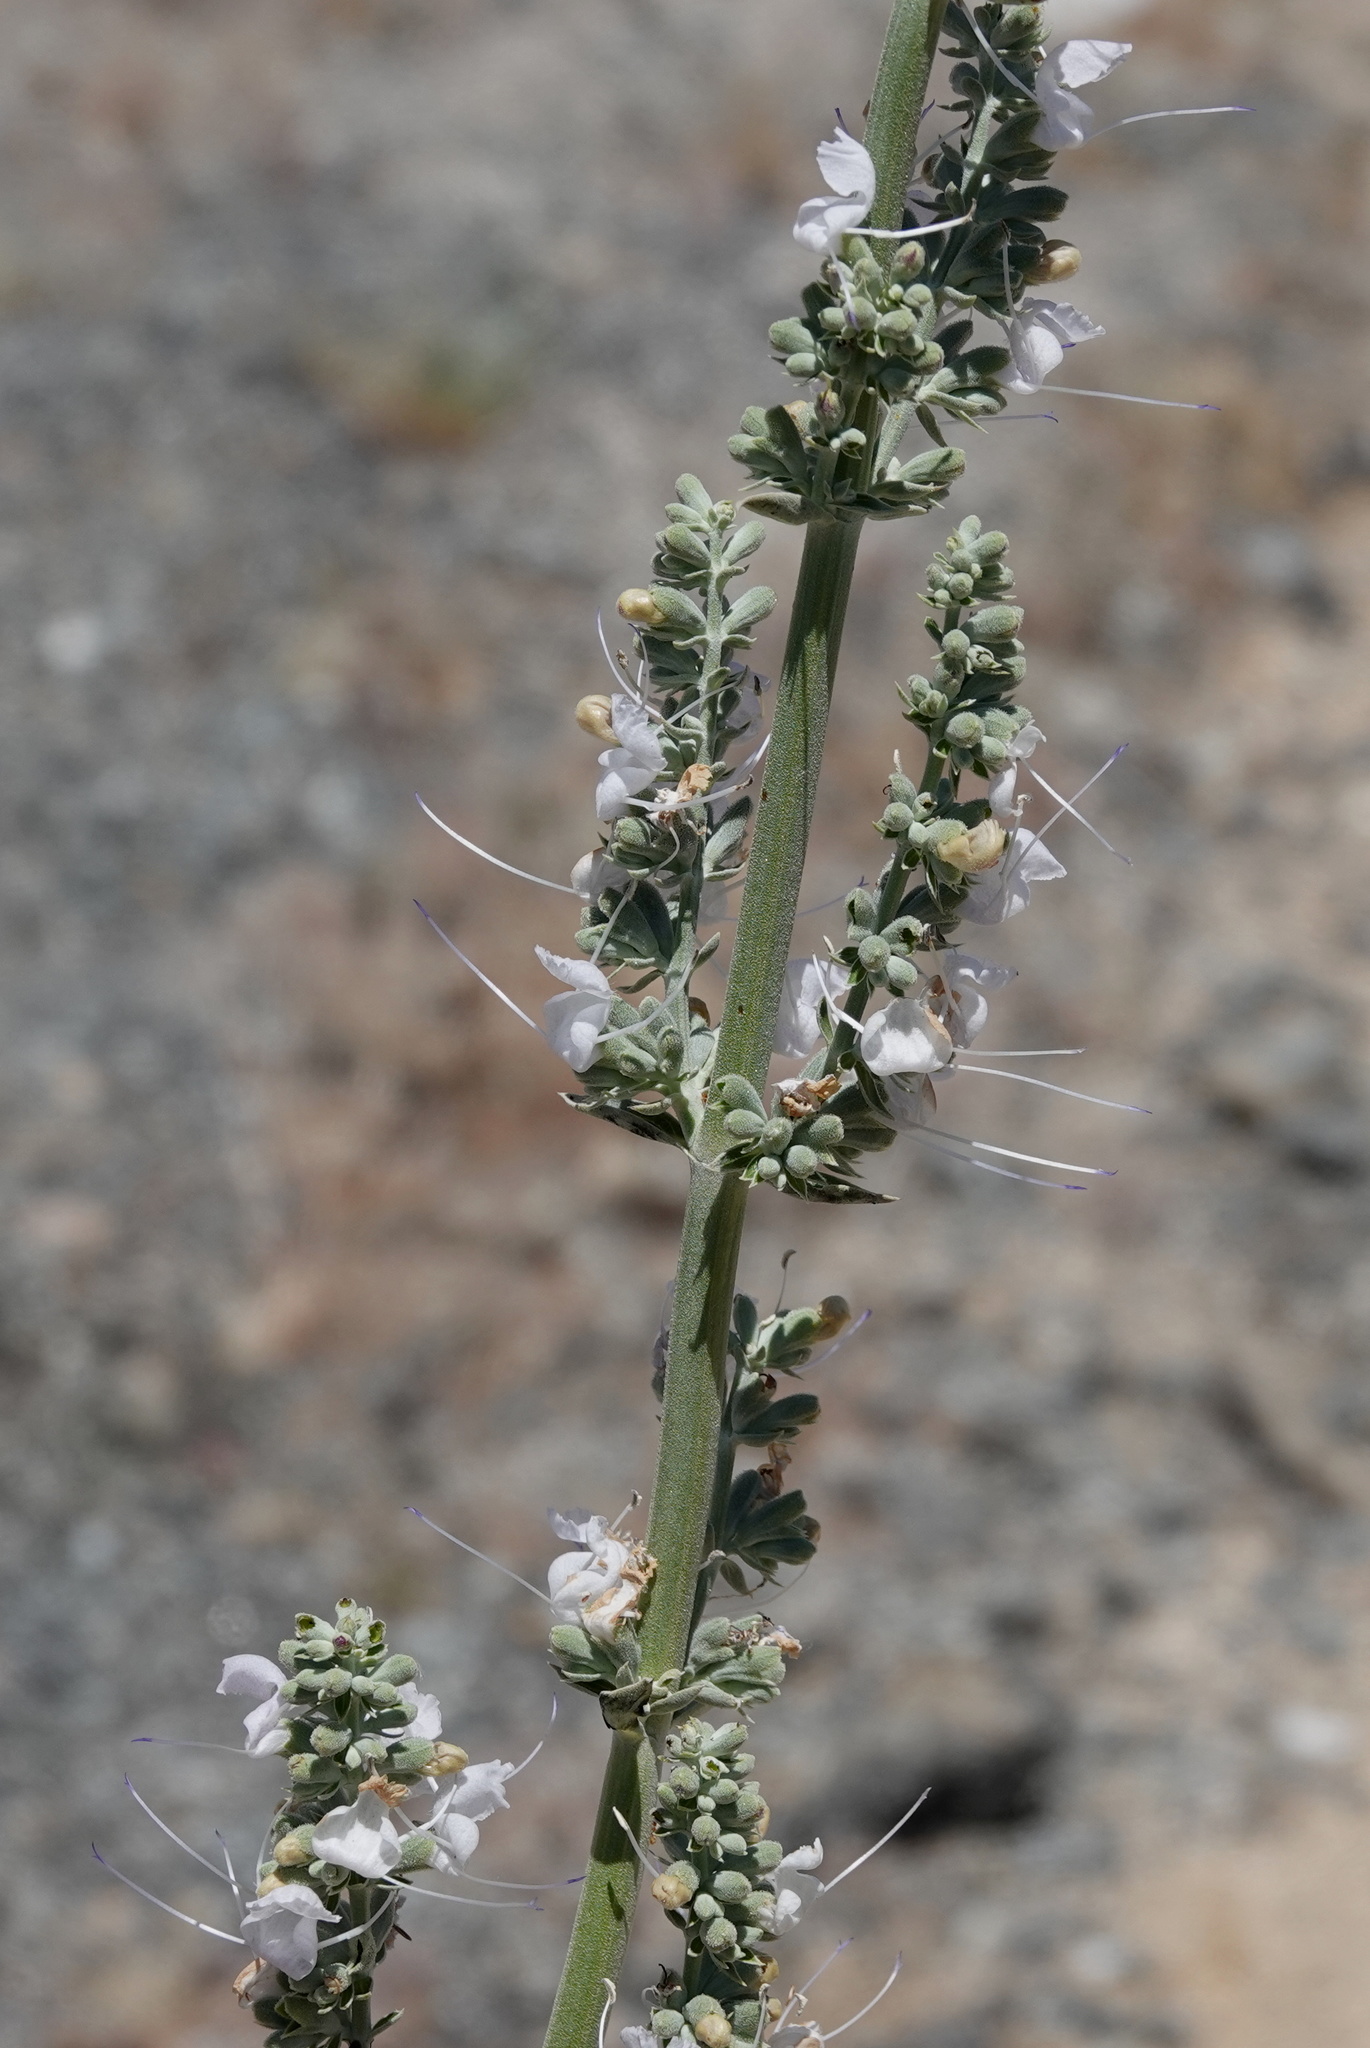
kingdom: Plantae
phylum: Tracheophyta
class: Magnoliopsida
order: Lamiales
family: Lamiaceae
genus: Salvia
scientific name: Salvia apiana
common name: White sage
